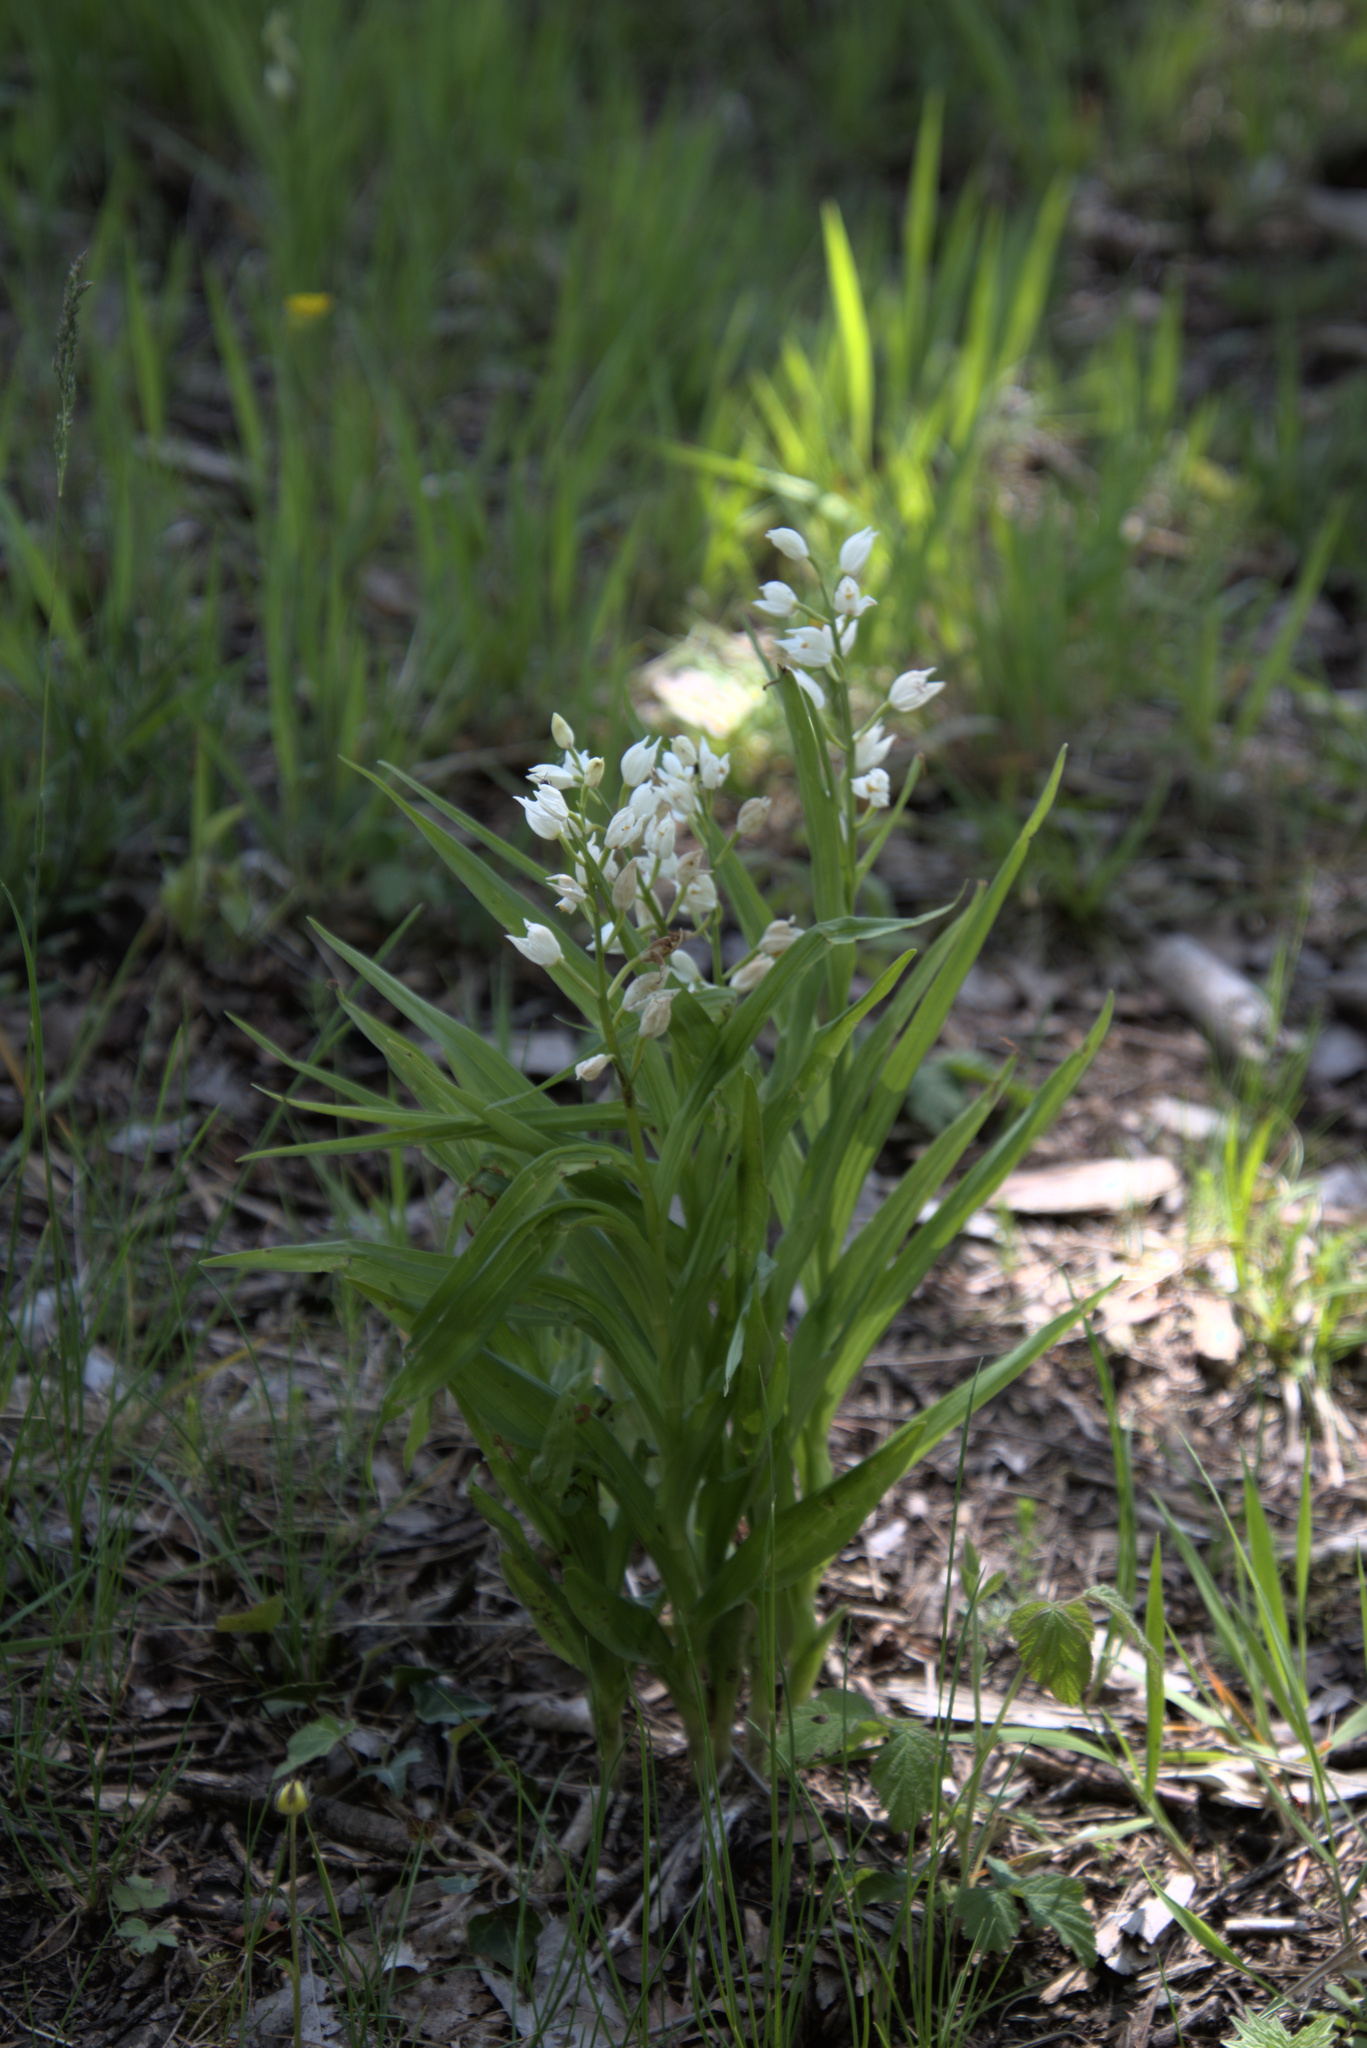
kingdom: Plantae
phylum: Tracheophyta
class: Liliopsida
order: Asparagales
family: Orchidaceae
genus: Cephalanthera
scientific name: Cephalanthera longifolia
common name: Narrow-leaved helleborine
